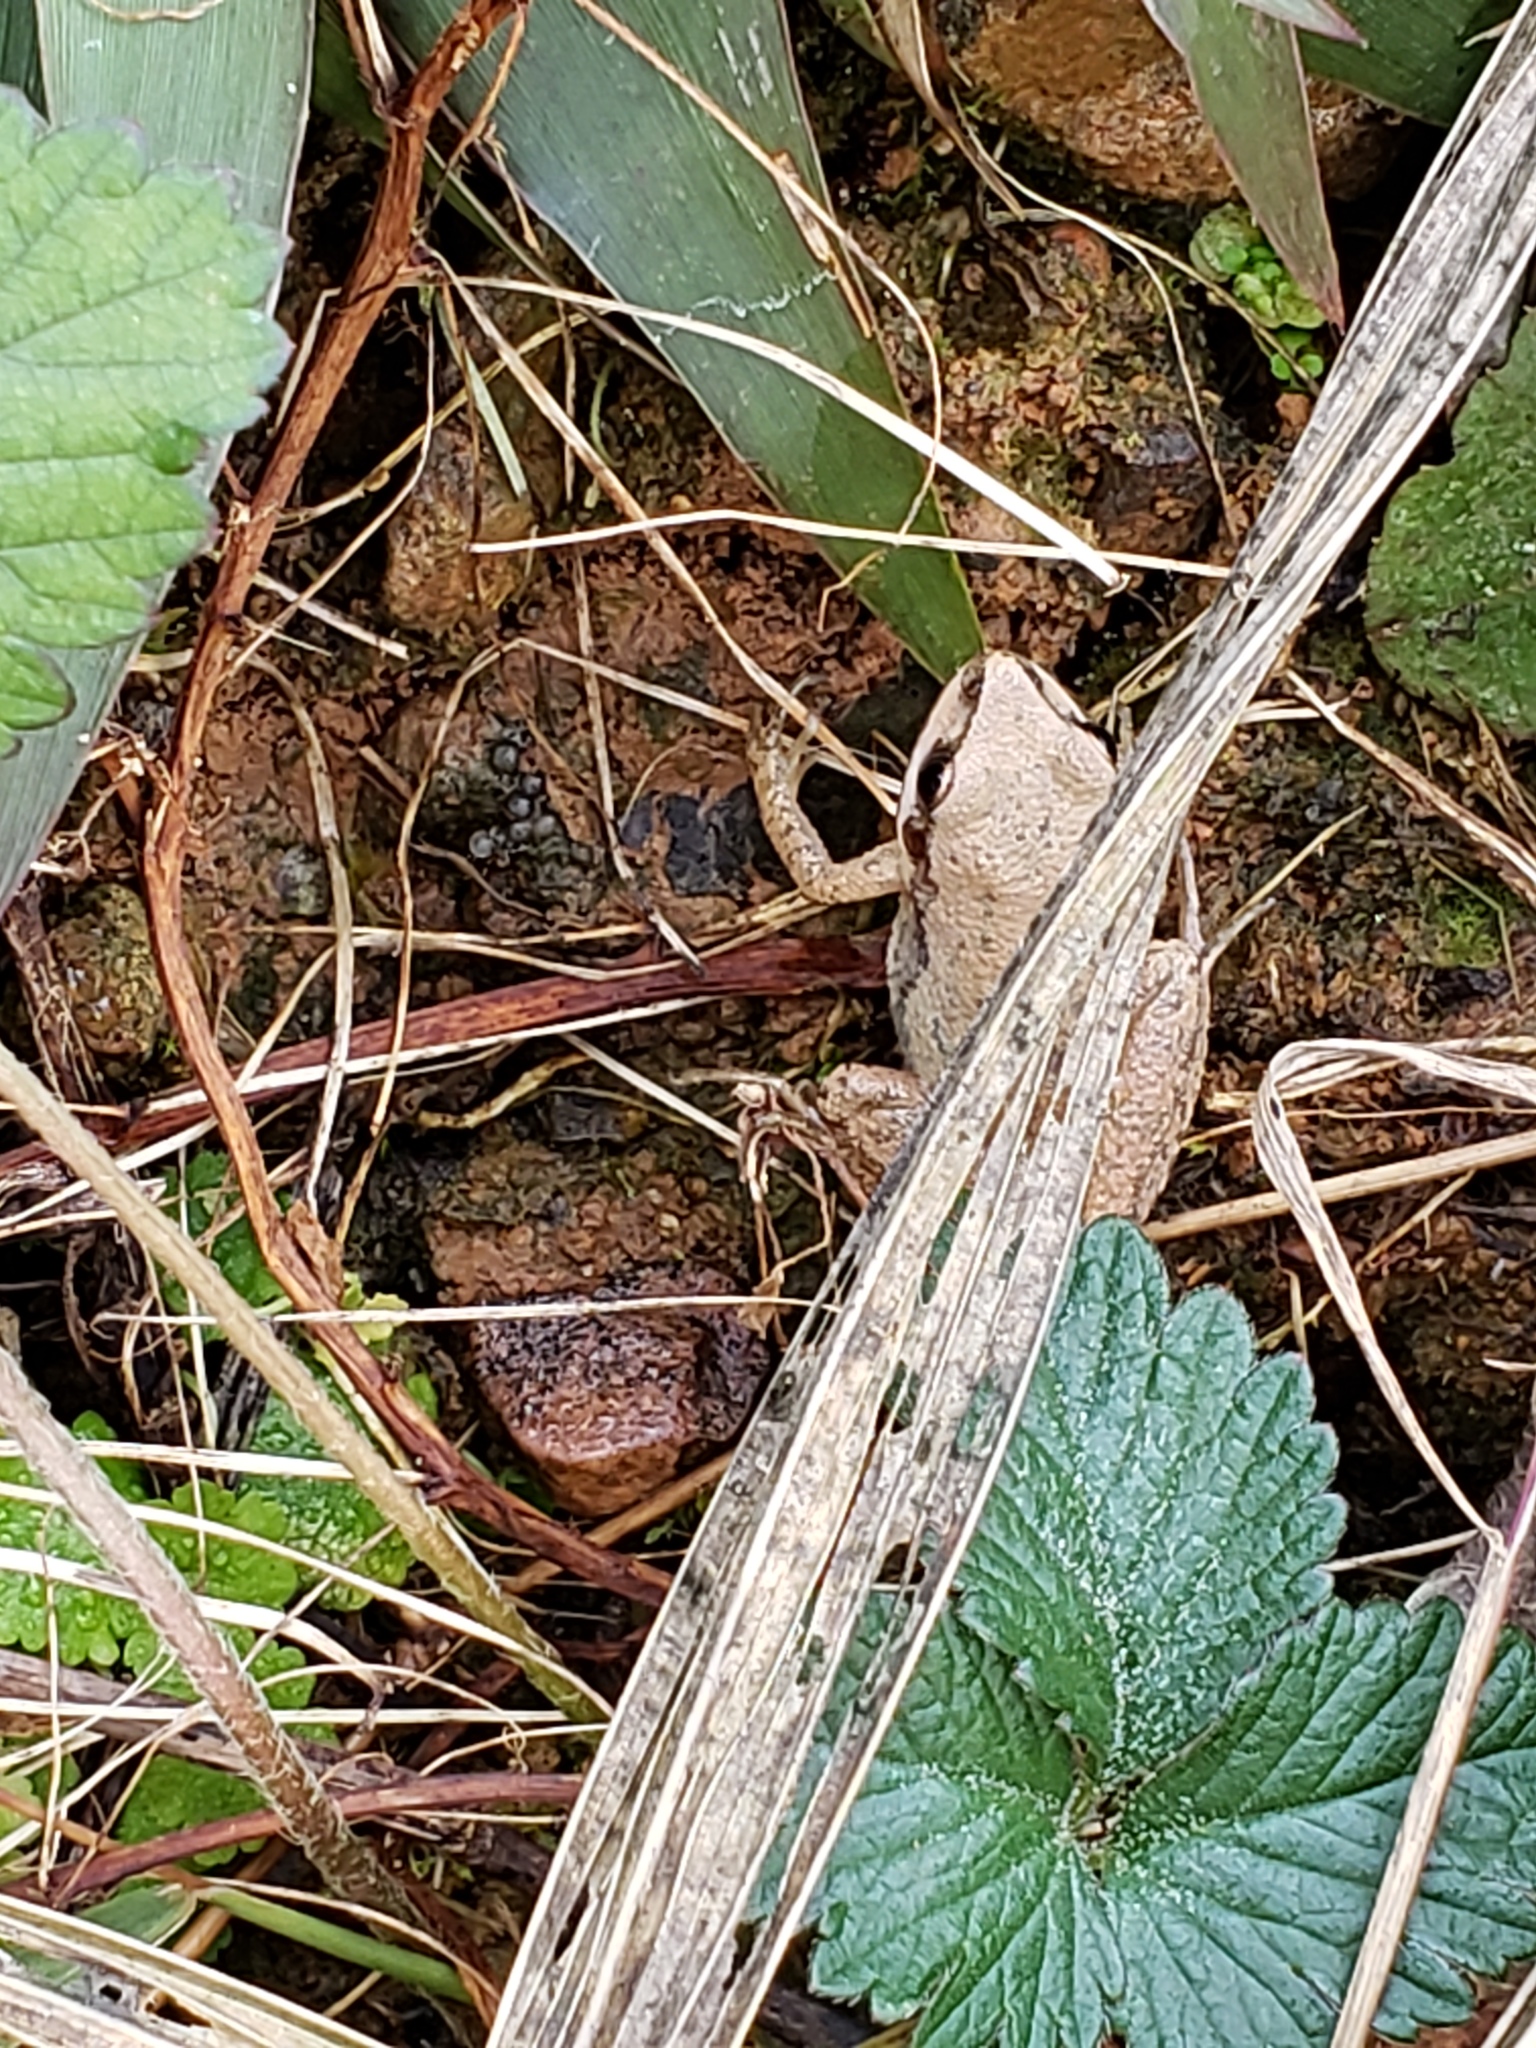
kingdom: Animalia
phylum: Chordata
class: Amphibia
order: Anura
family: Hylidae
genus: Pseudacris
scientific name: Pseudacris feriarum
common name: Upland chorus frog
